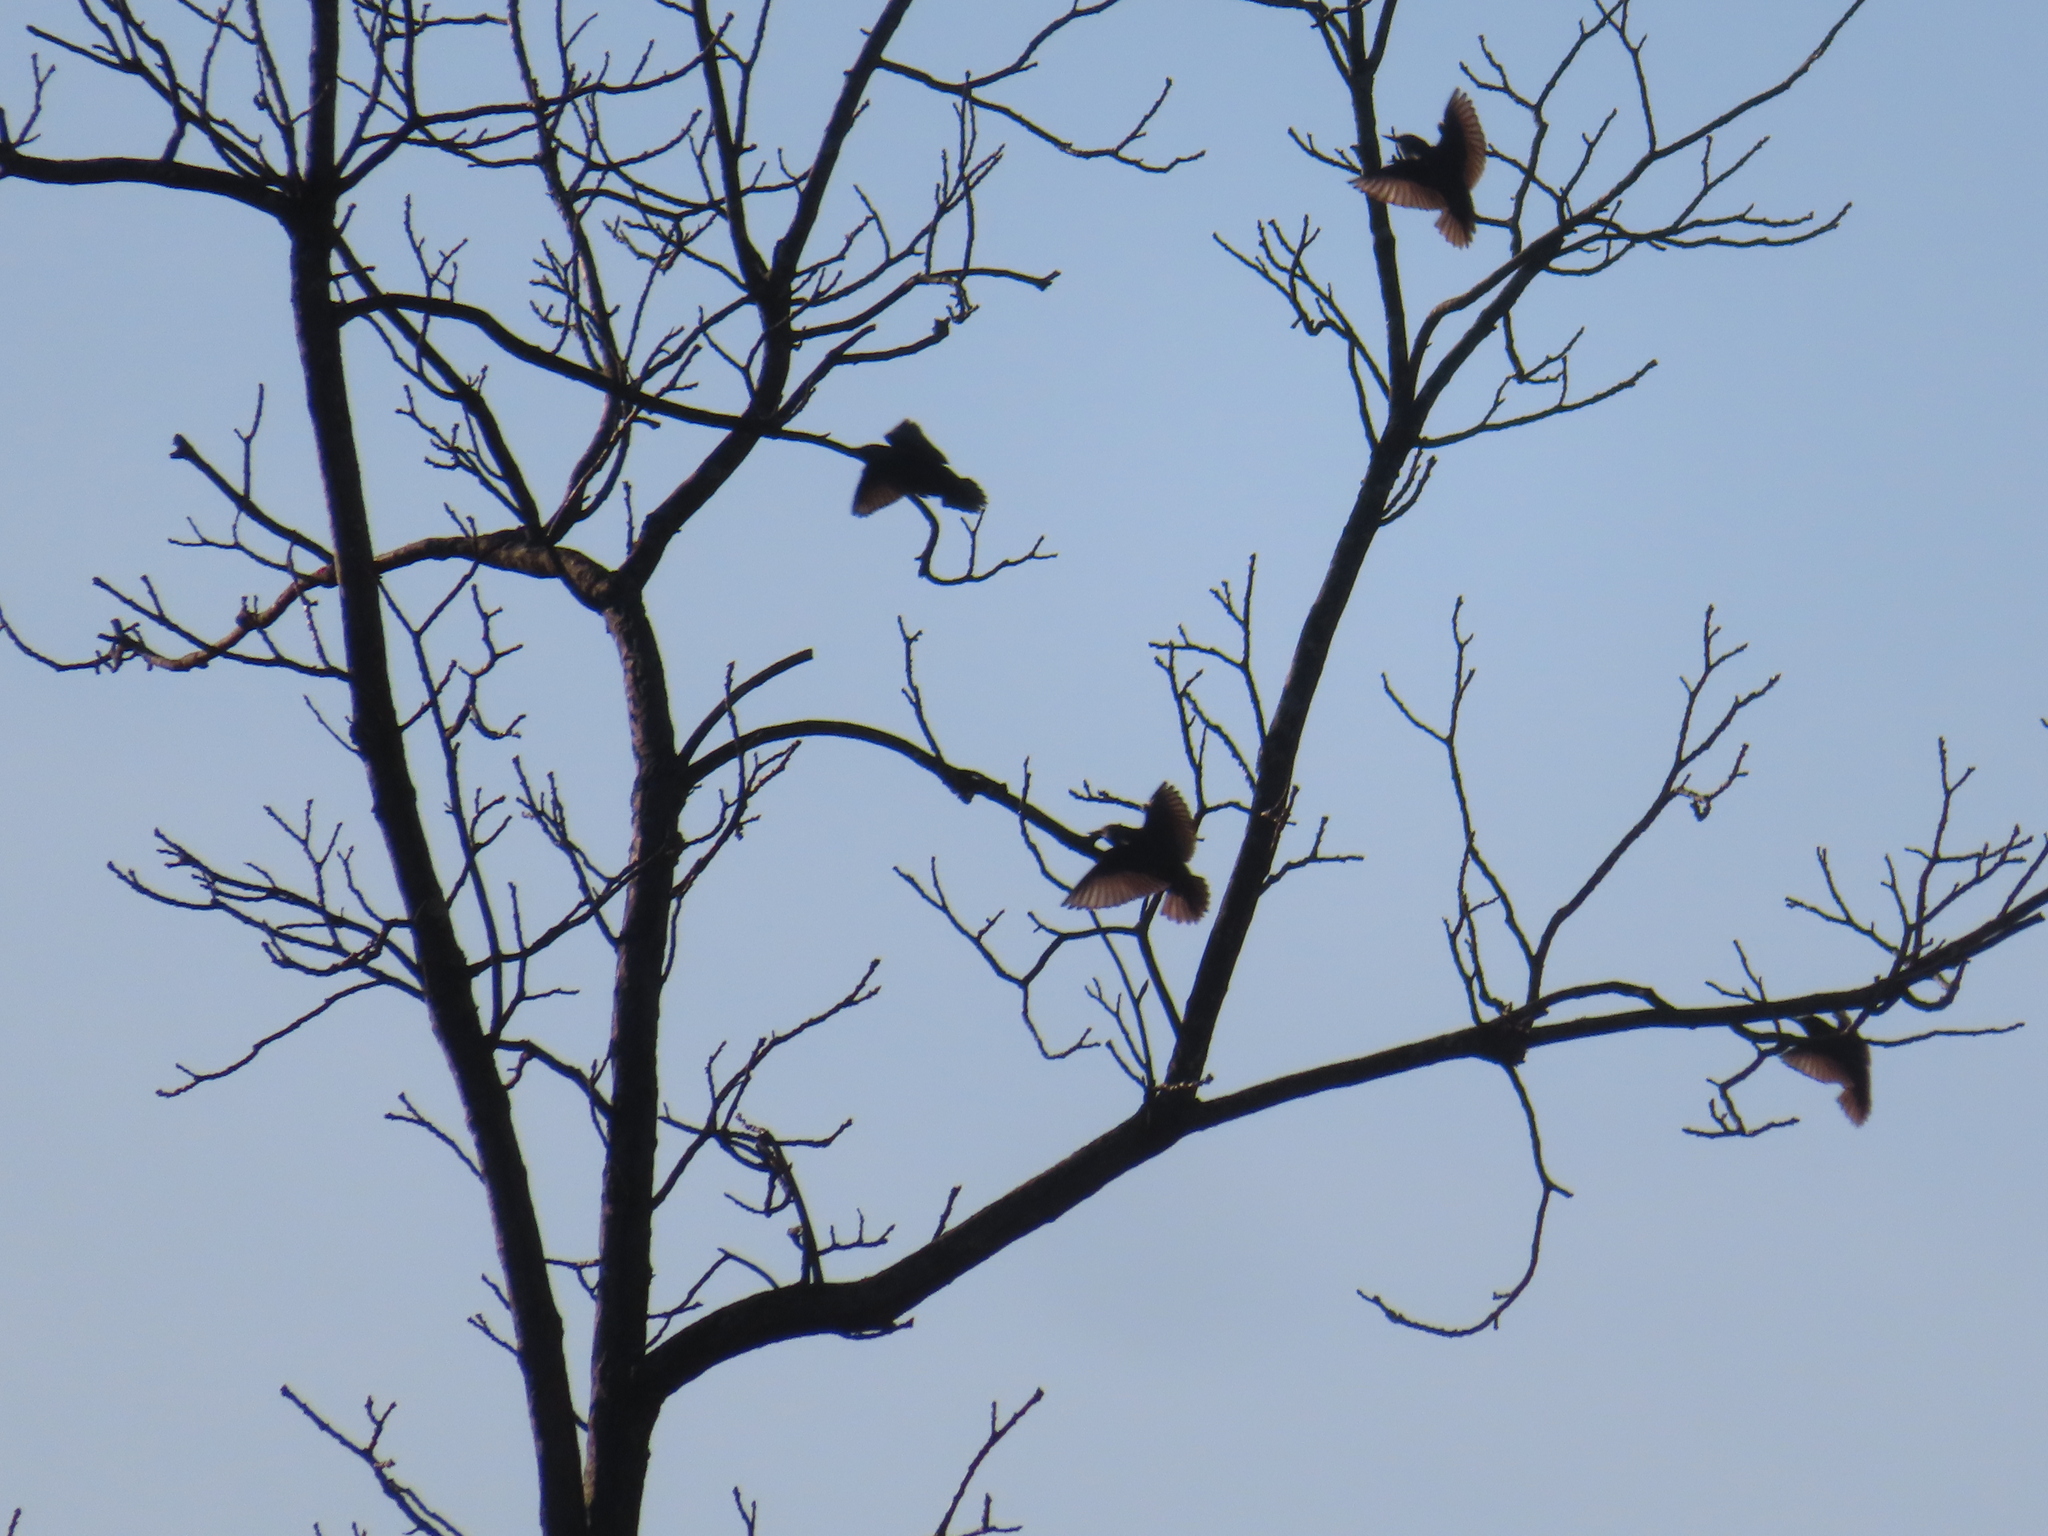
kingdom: Animalia
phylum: Chordata
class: Aves
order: Passeriformes
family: Sturnidae
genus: Sturnus
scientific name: Sturnus vulgaris
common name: Common starling
